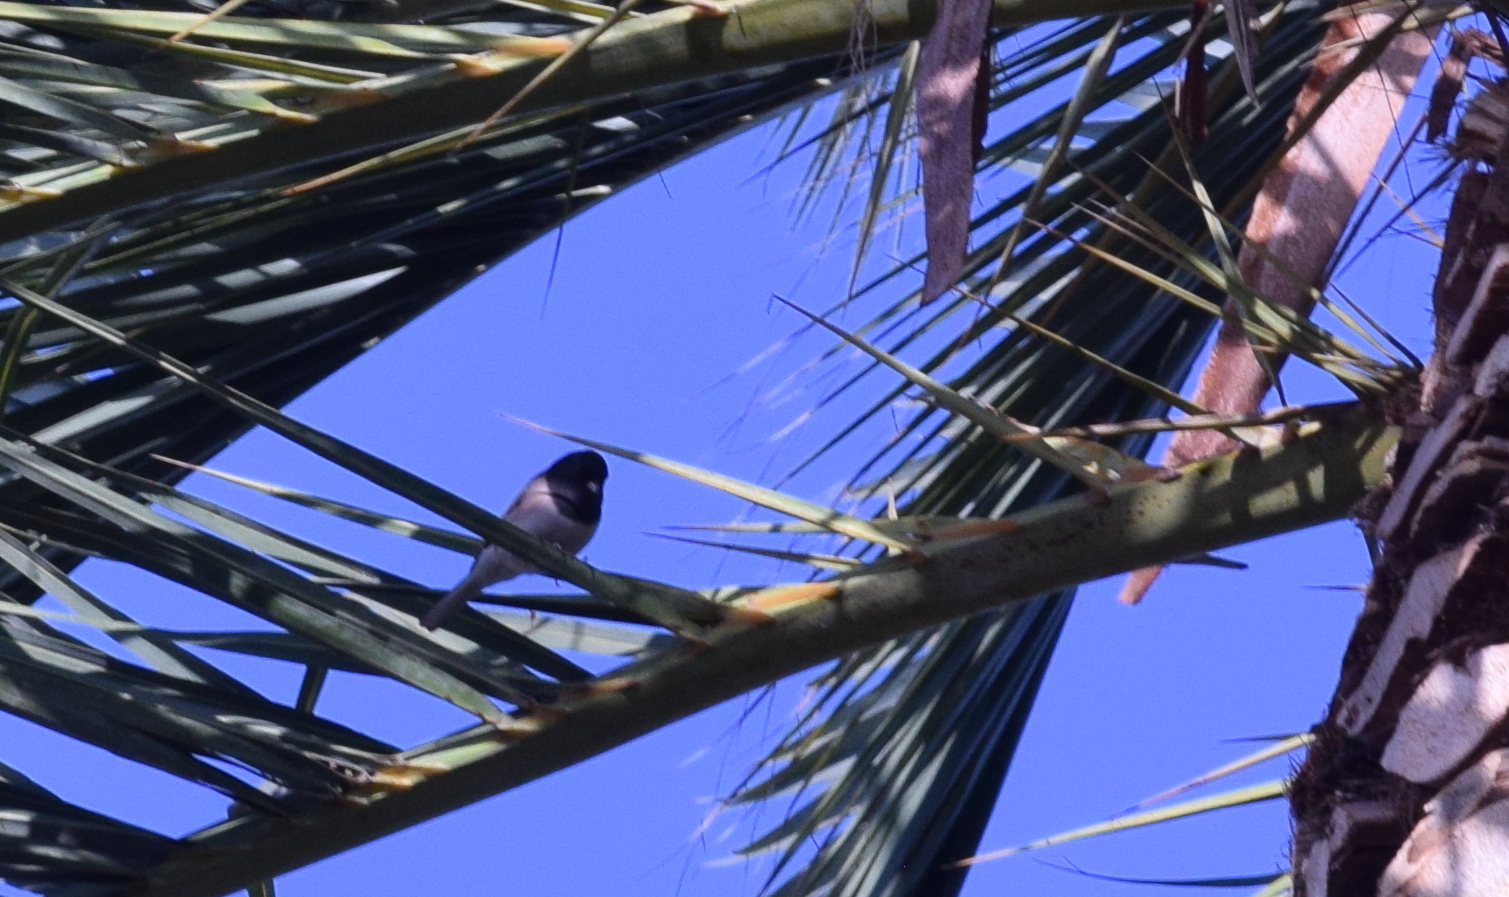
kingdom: Animalia
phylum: Chordata
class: Aves
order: Passeriformes
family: Passerellidae
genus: Junco
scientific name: Junco hyemalis
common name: Dark-eyed junco
